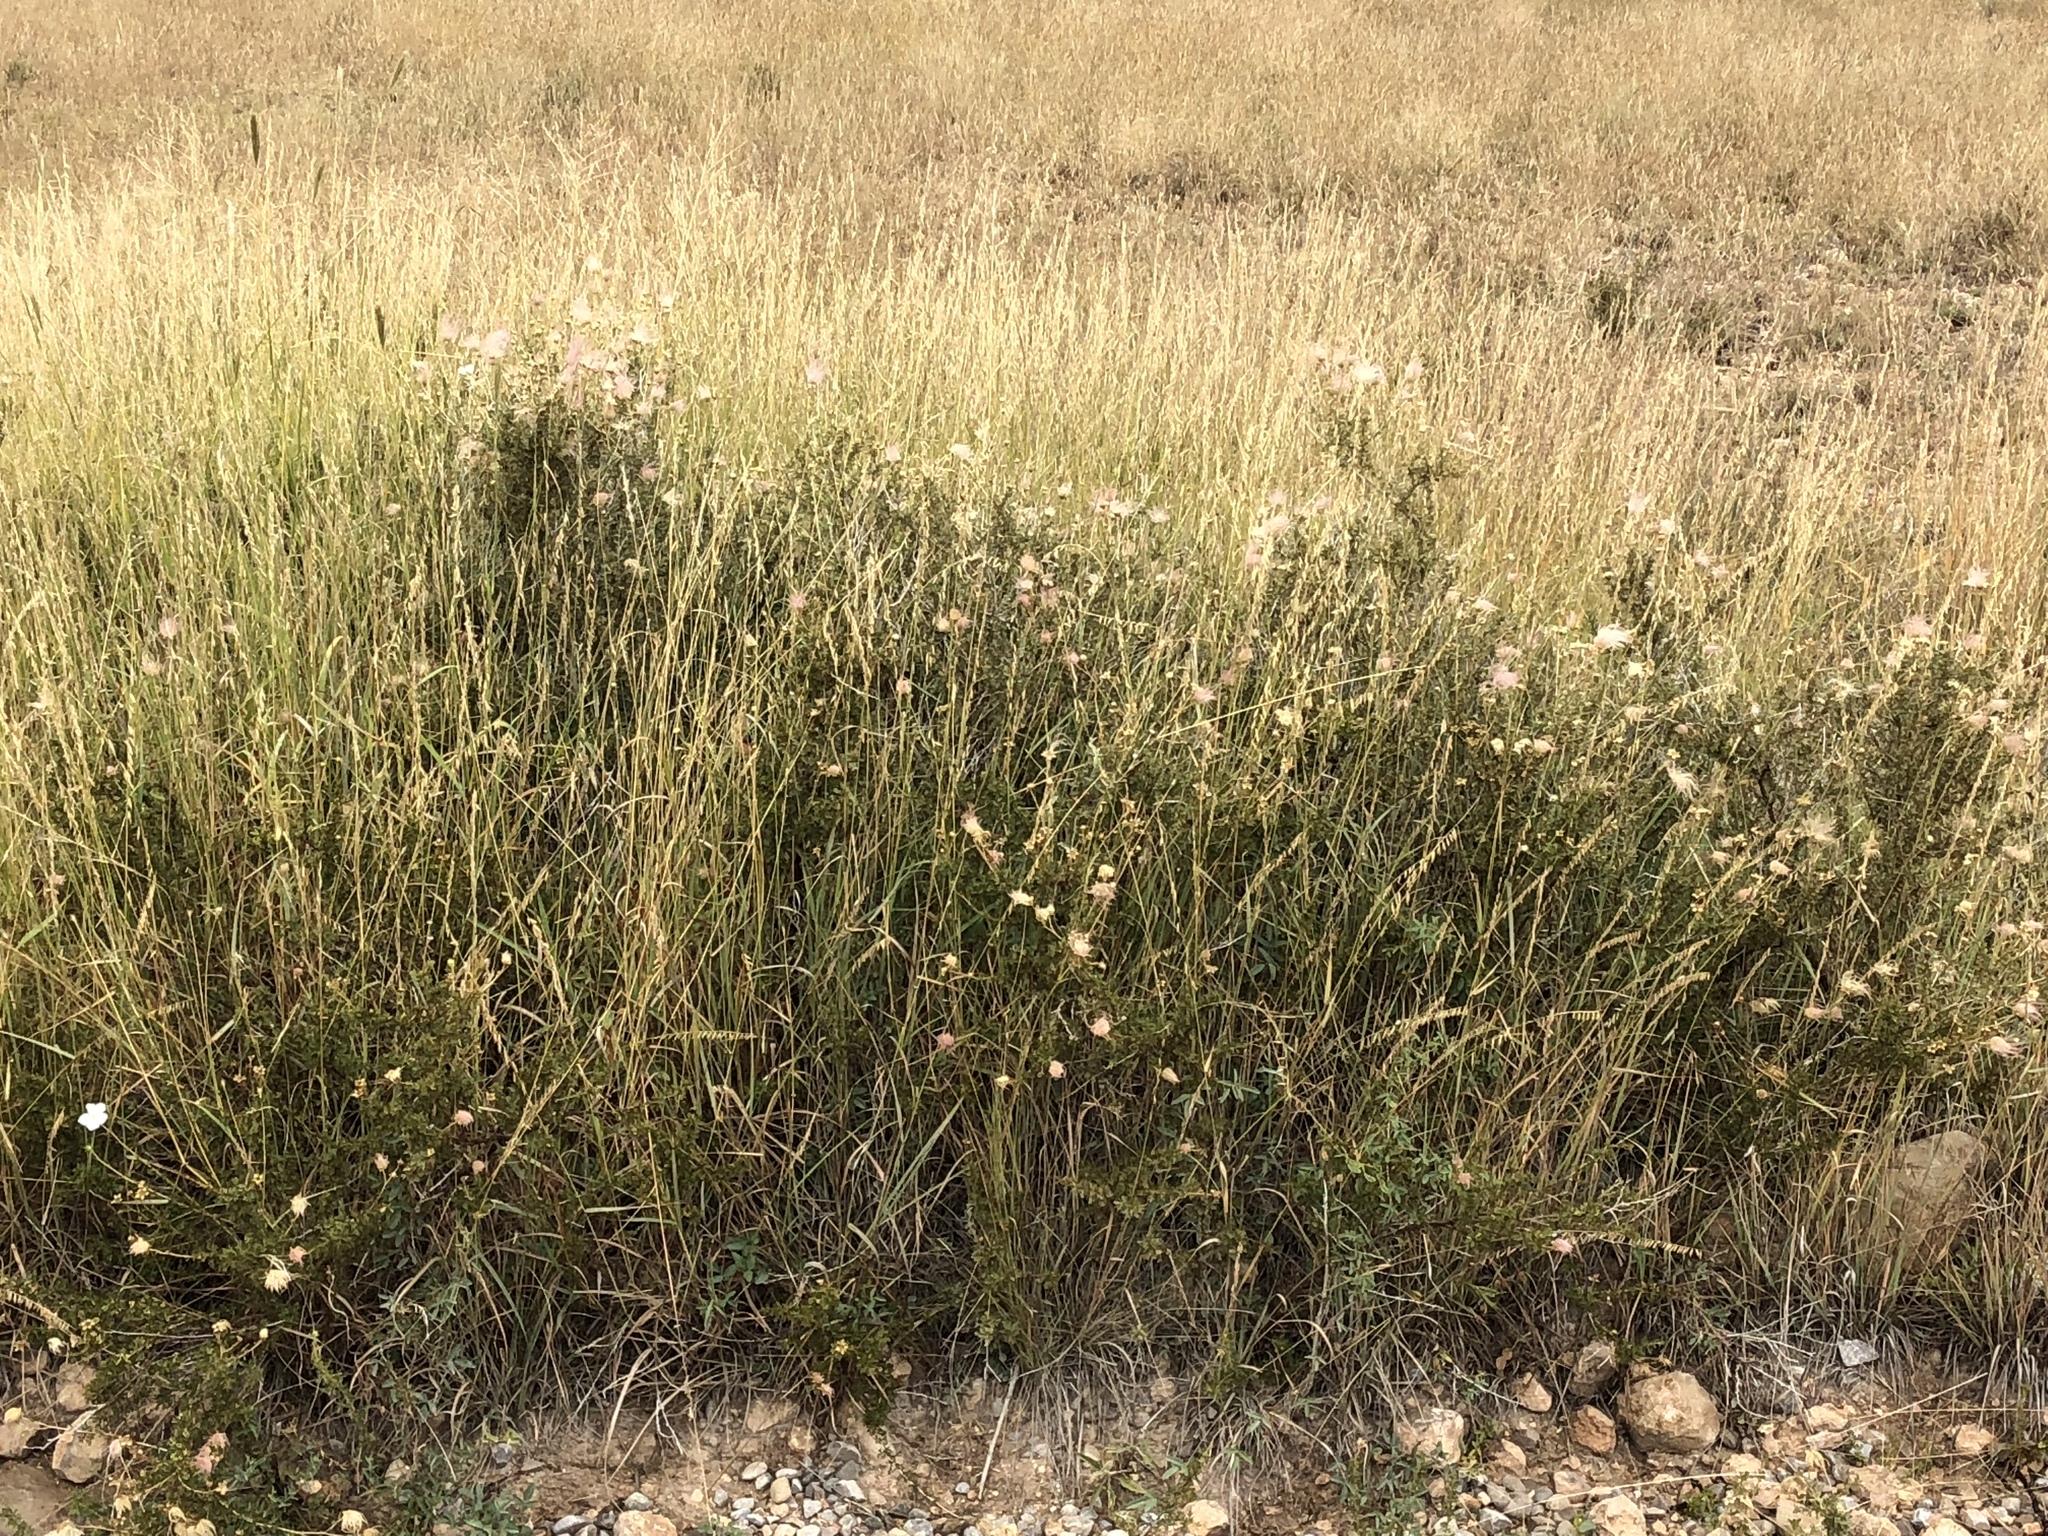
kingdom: Plantae
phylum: Tracheophyta
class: Magnoliopsida
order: Rosales
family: Rosaceae
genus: Fallugia
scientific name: Fallugia paradoxa
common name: Apache-plume
